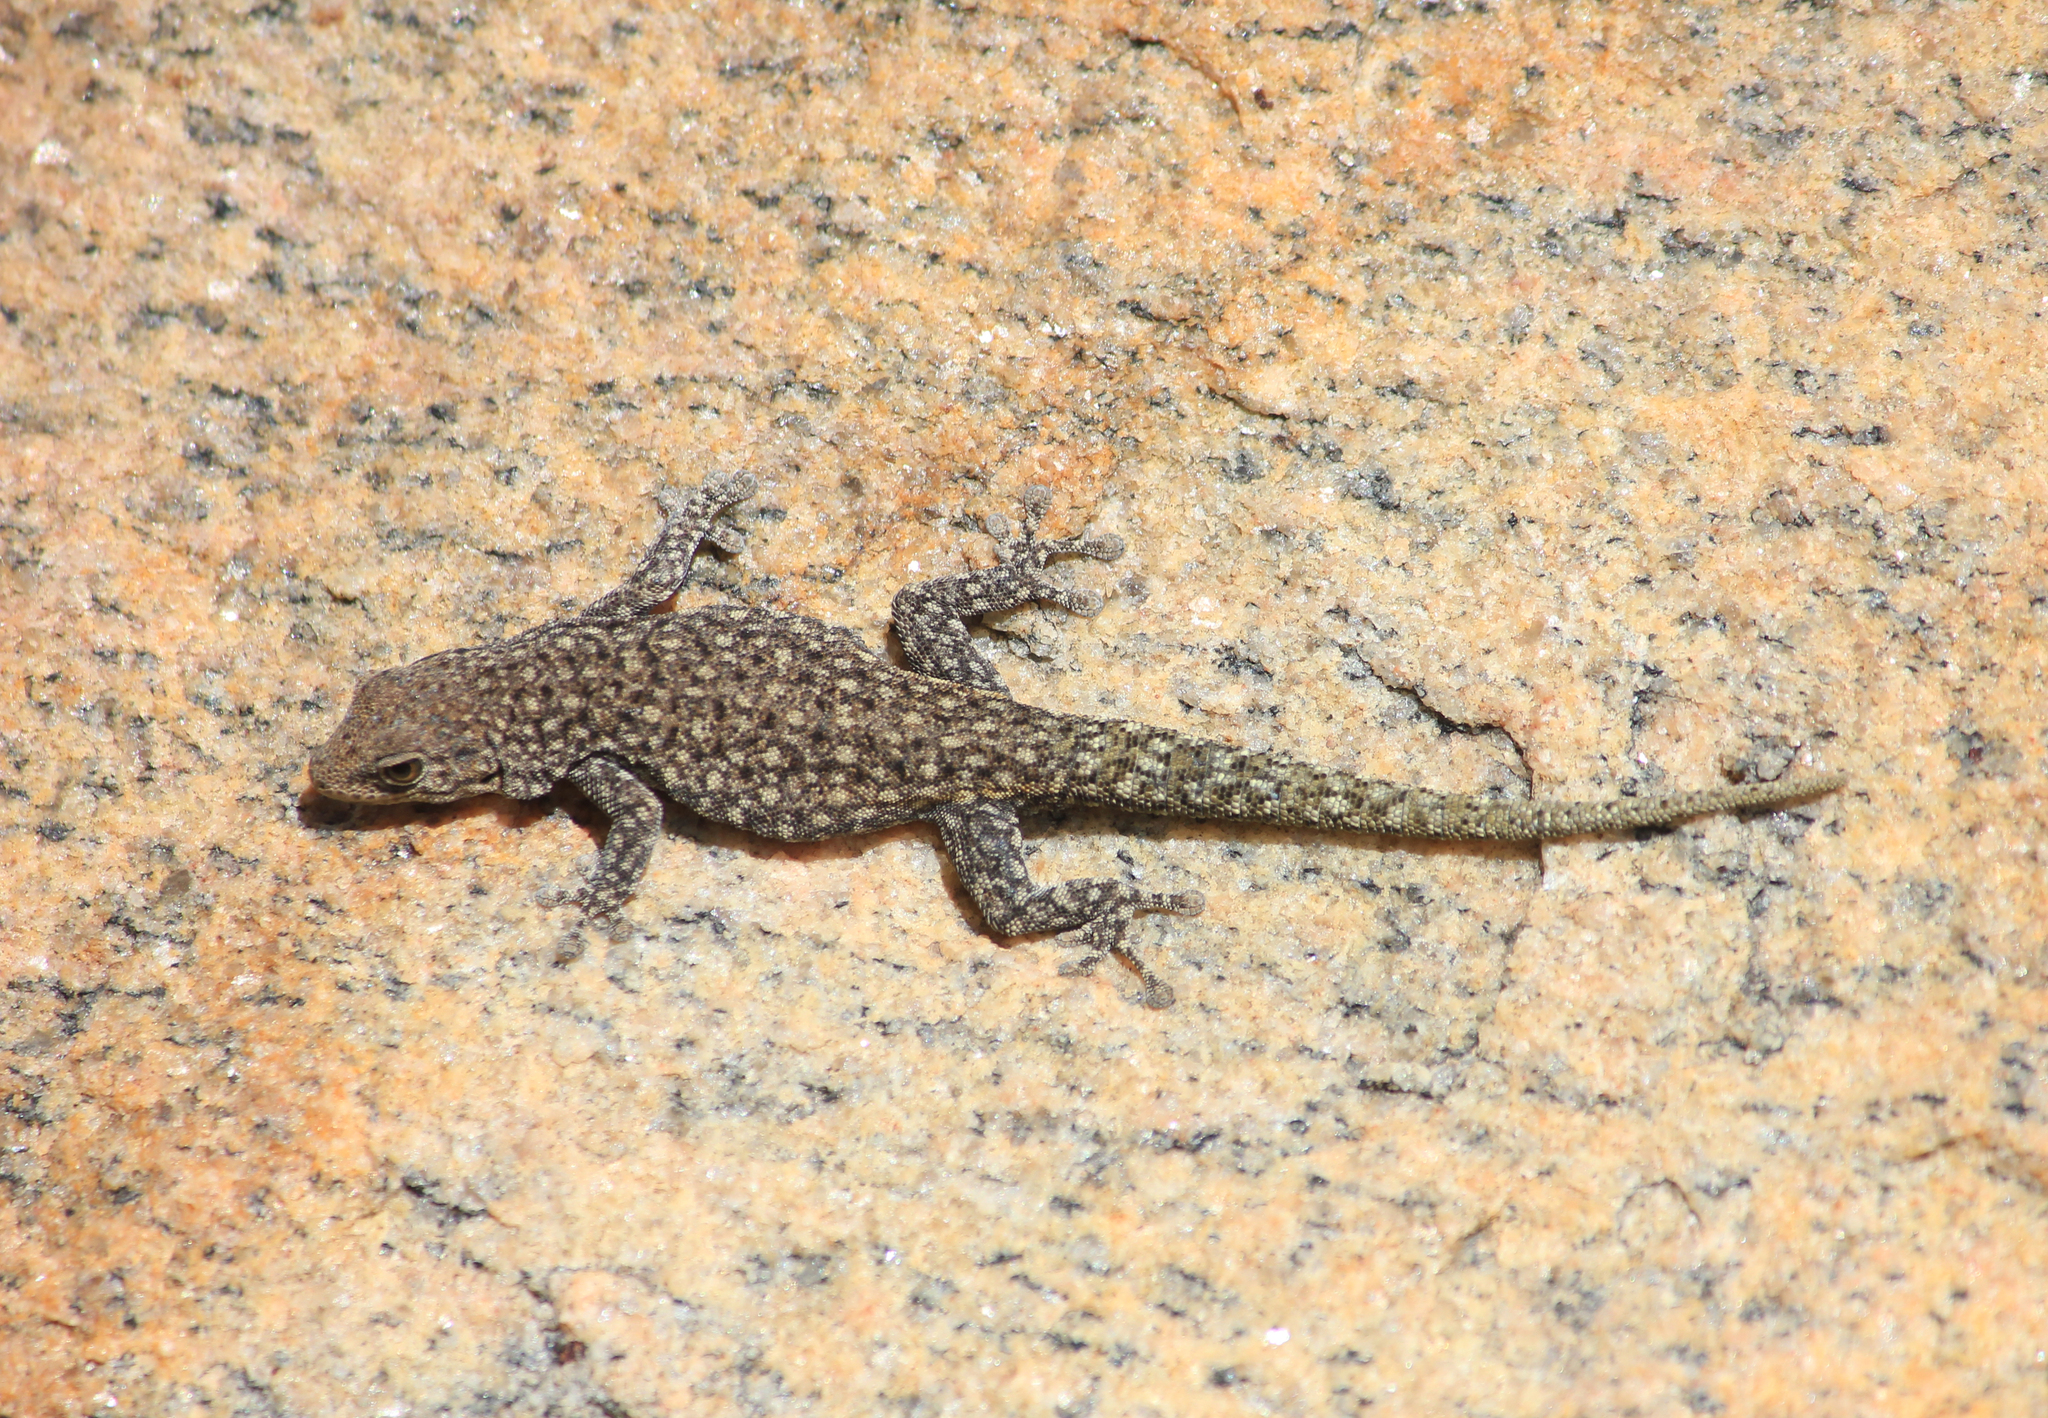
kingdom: Animalia
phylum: Chordata
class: Squamata
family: Gekkonidae
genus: Rhoptropella
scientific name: Rhoptropella ocellata
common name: Namaqua day gecko
